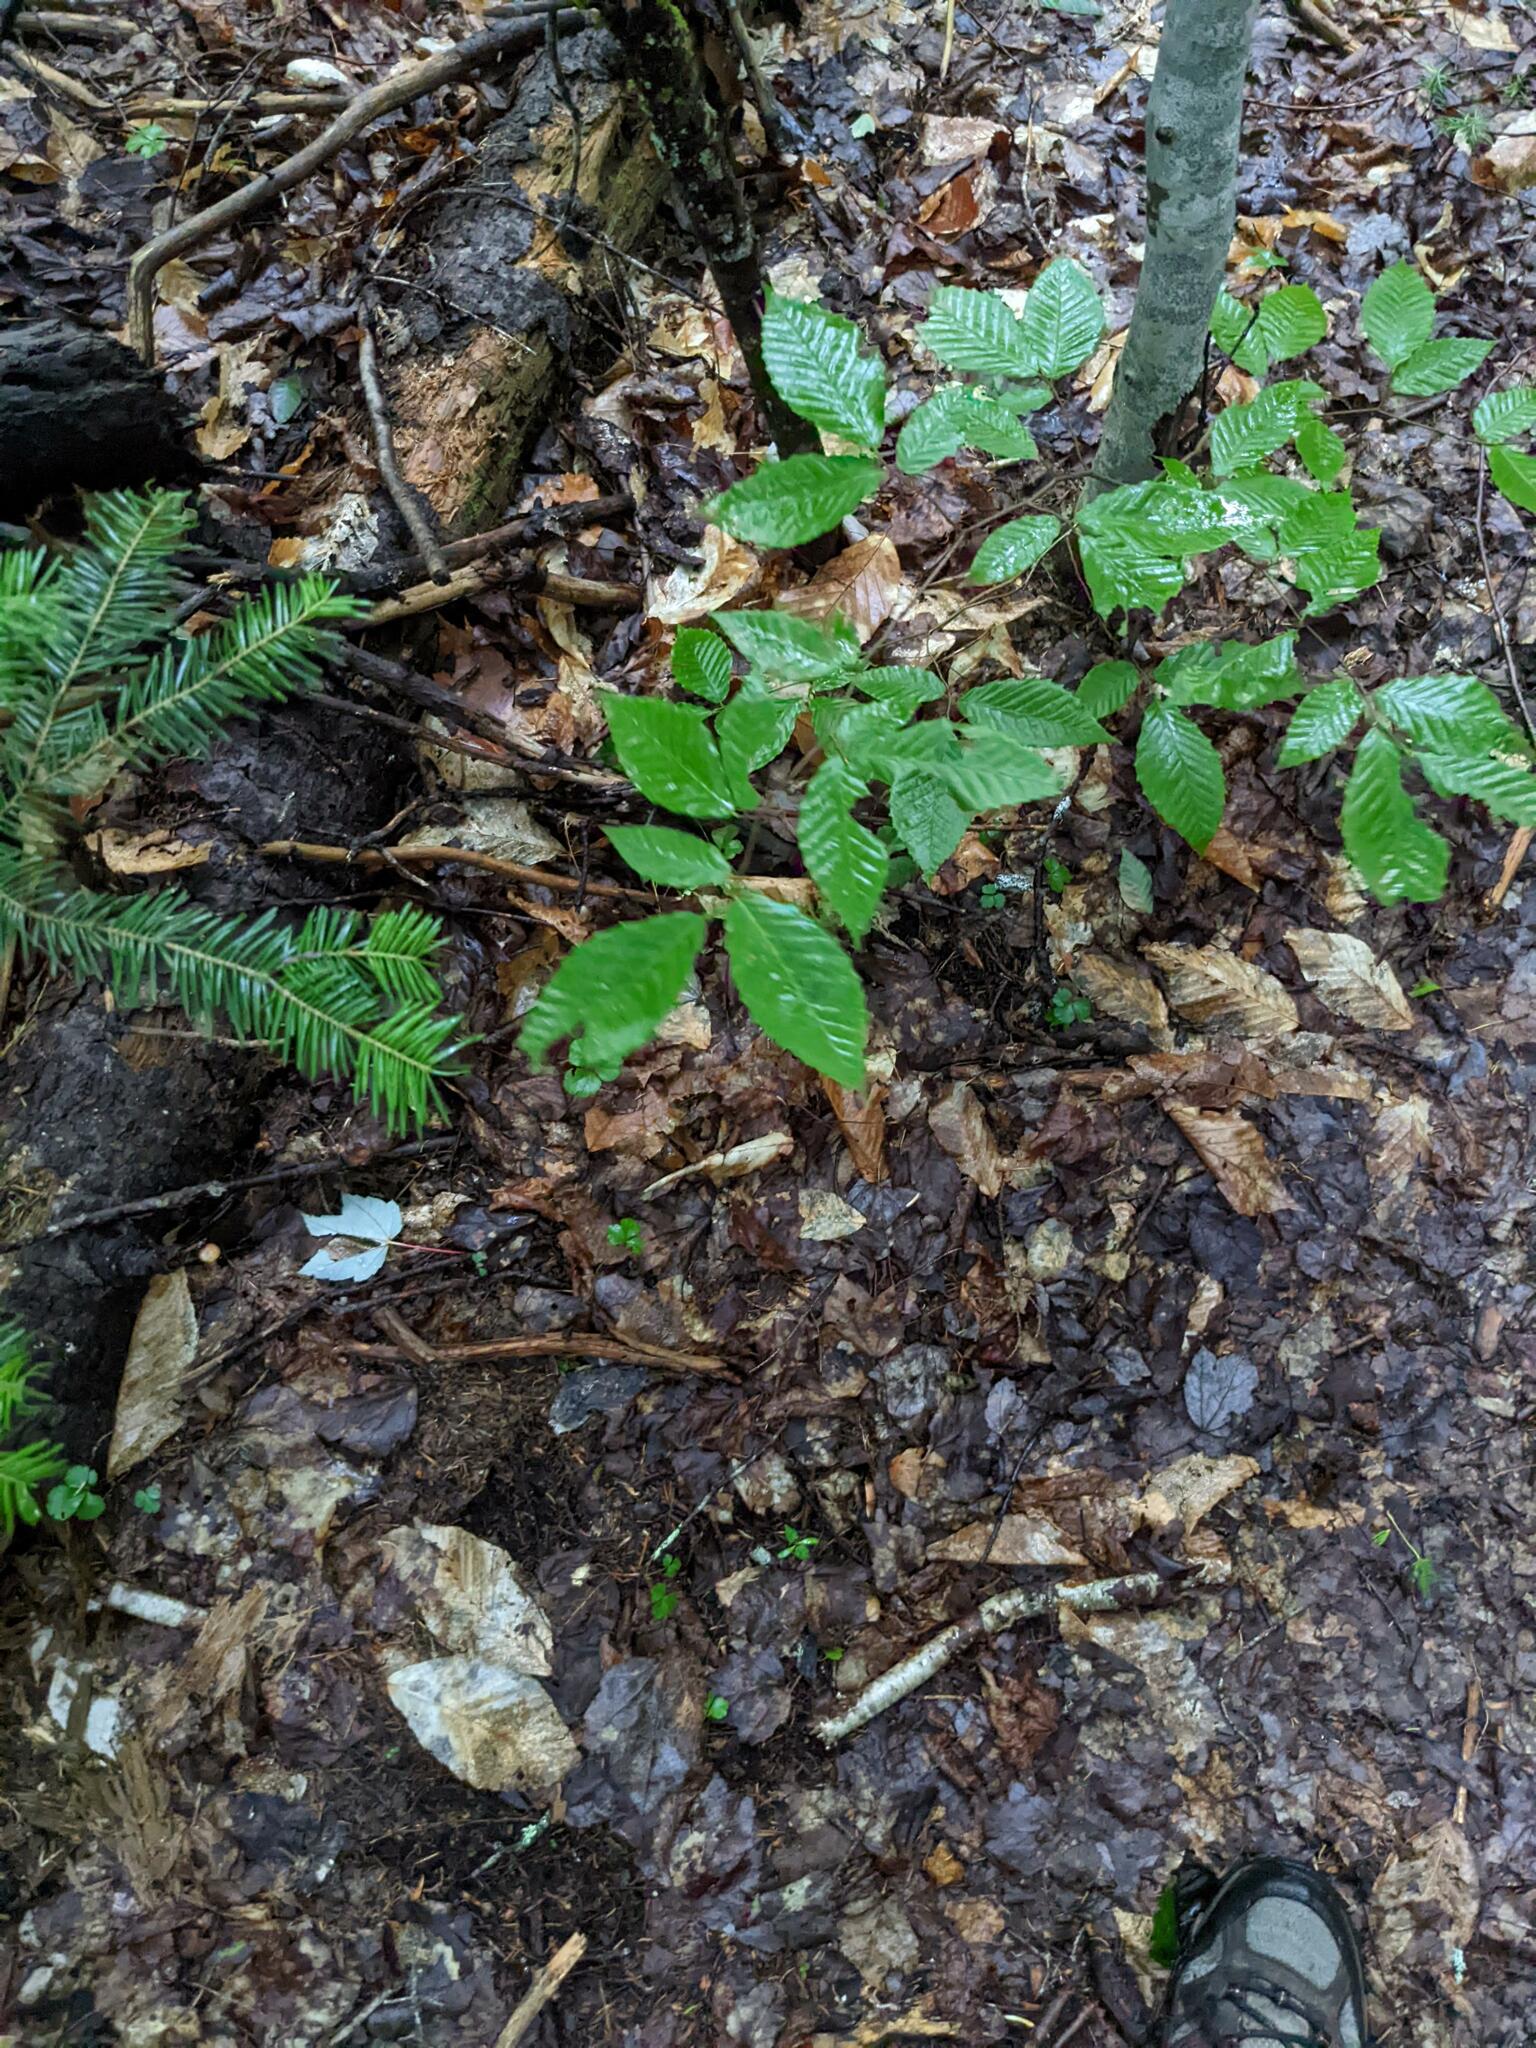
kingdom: Plantae
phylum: Tracheophyta
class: Magnoliopsida
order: Fagales
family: Fagaceae
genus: Fagus
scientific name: Fagus grandifolia
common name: American beech
